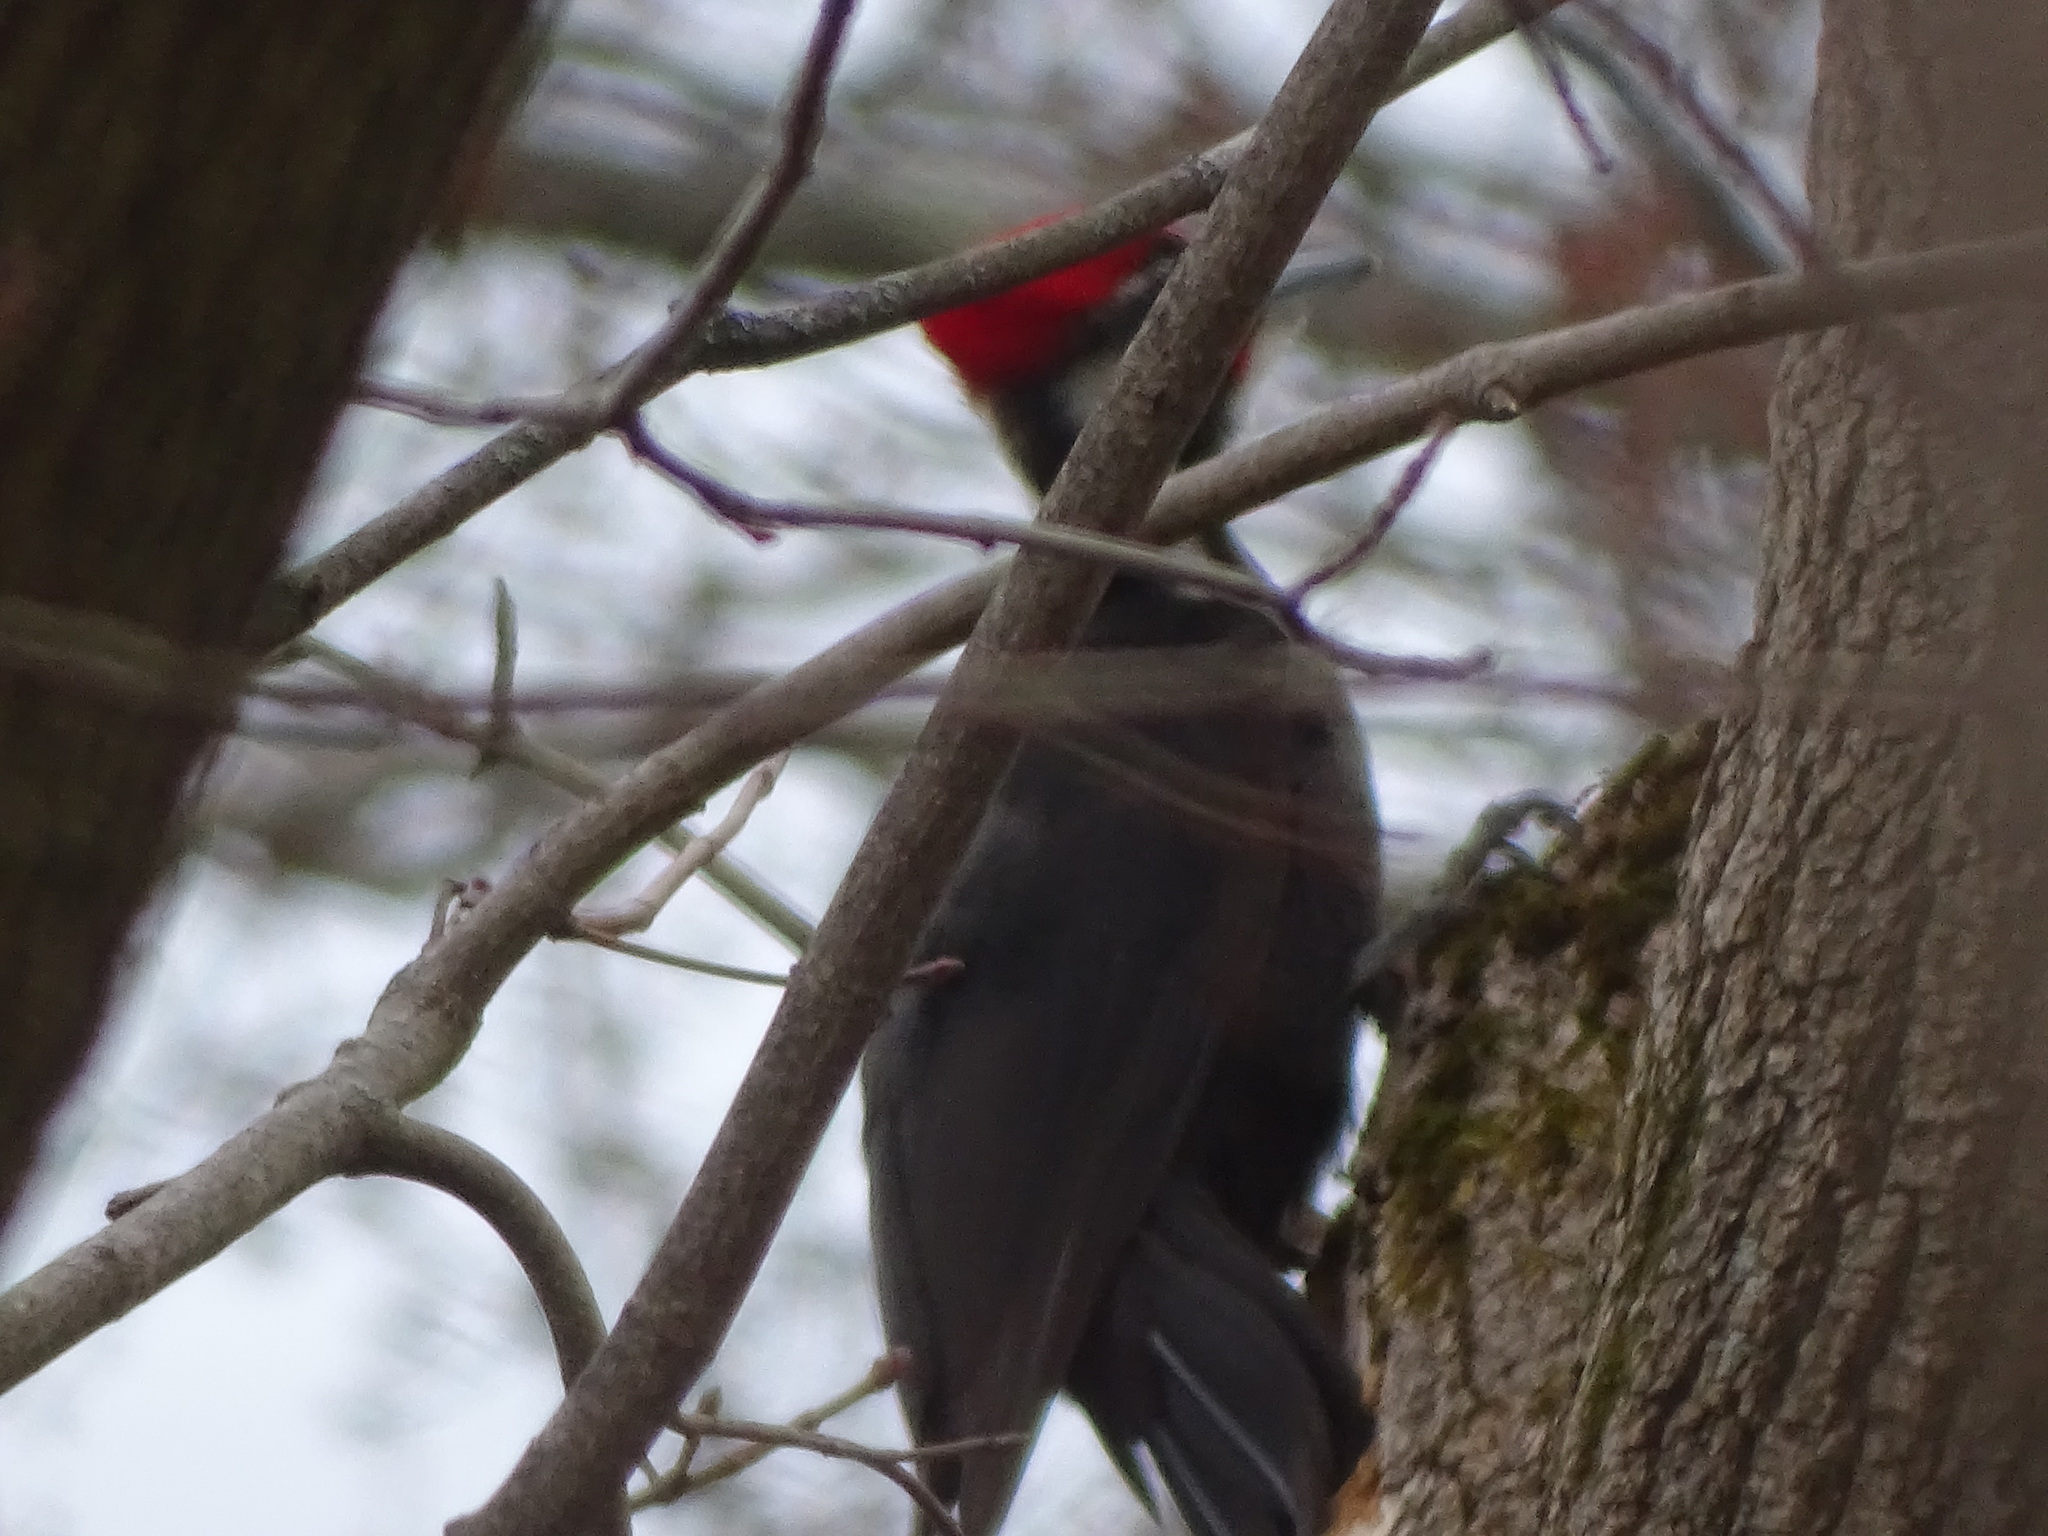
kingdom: Animalia
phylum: Chordata
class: Aves
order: Piciformes
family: Picidae
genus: Dryocopus
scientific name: Dryocopus pileatus
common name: Pileated woodpecker
